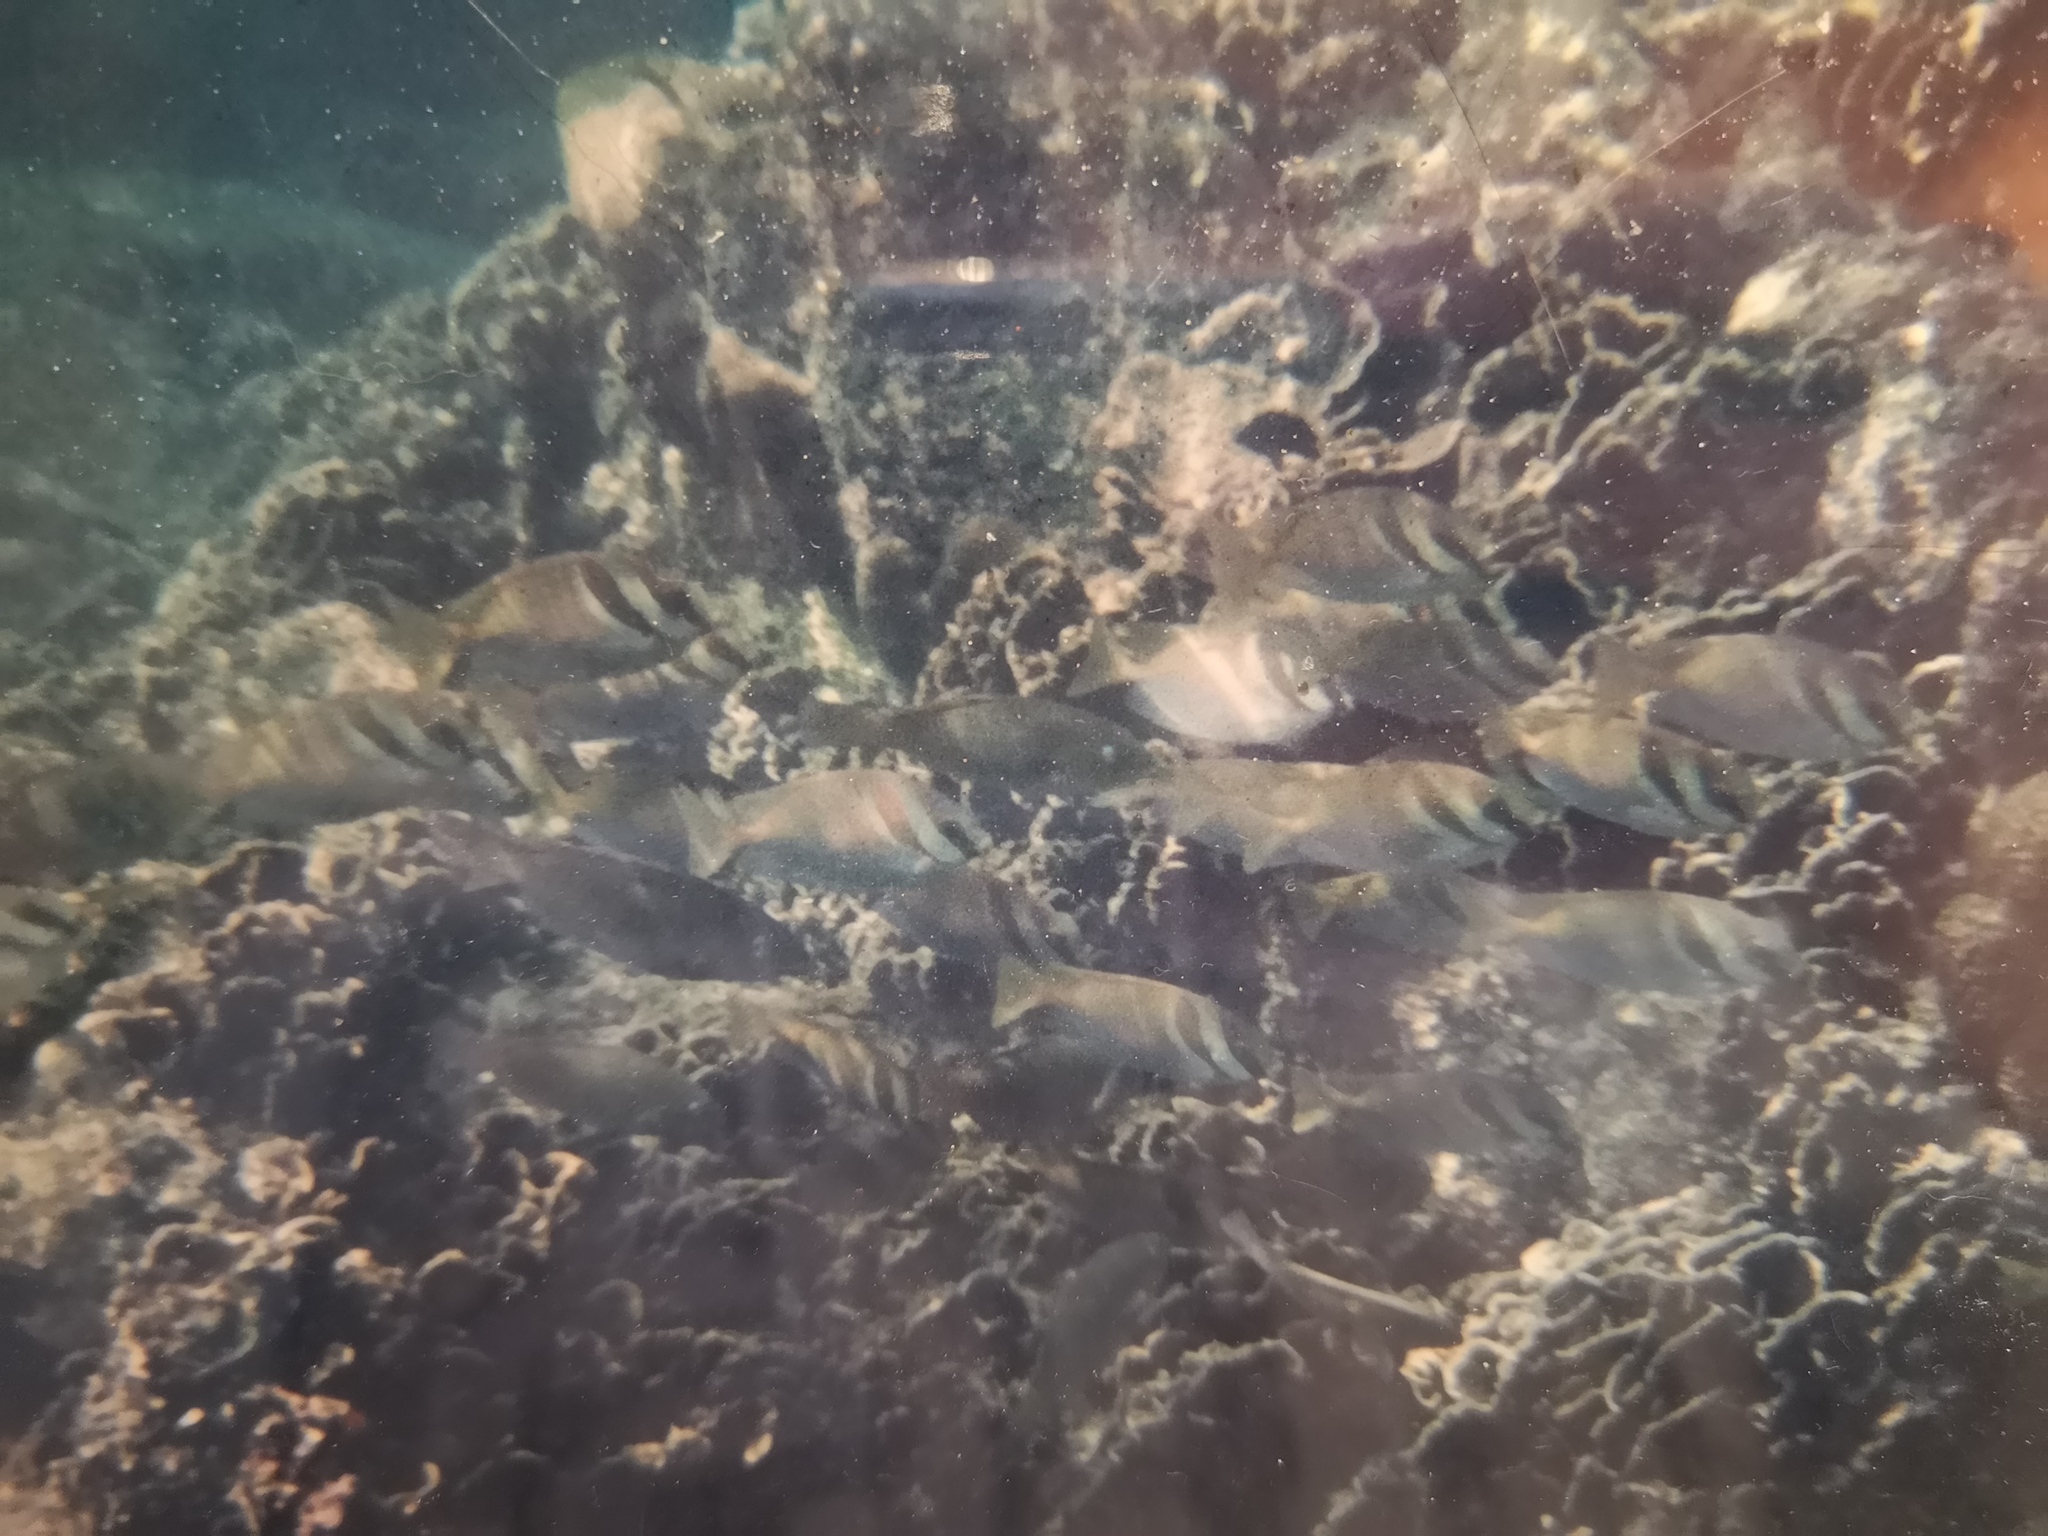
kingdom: Animalia
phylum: Chordata
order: Perciformes
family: Siganidae
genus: Siganus
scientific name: Siganus virgatus
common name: Barhead spinefoot
